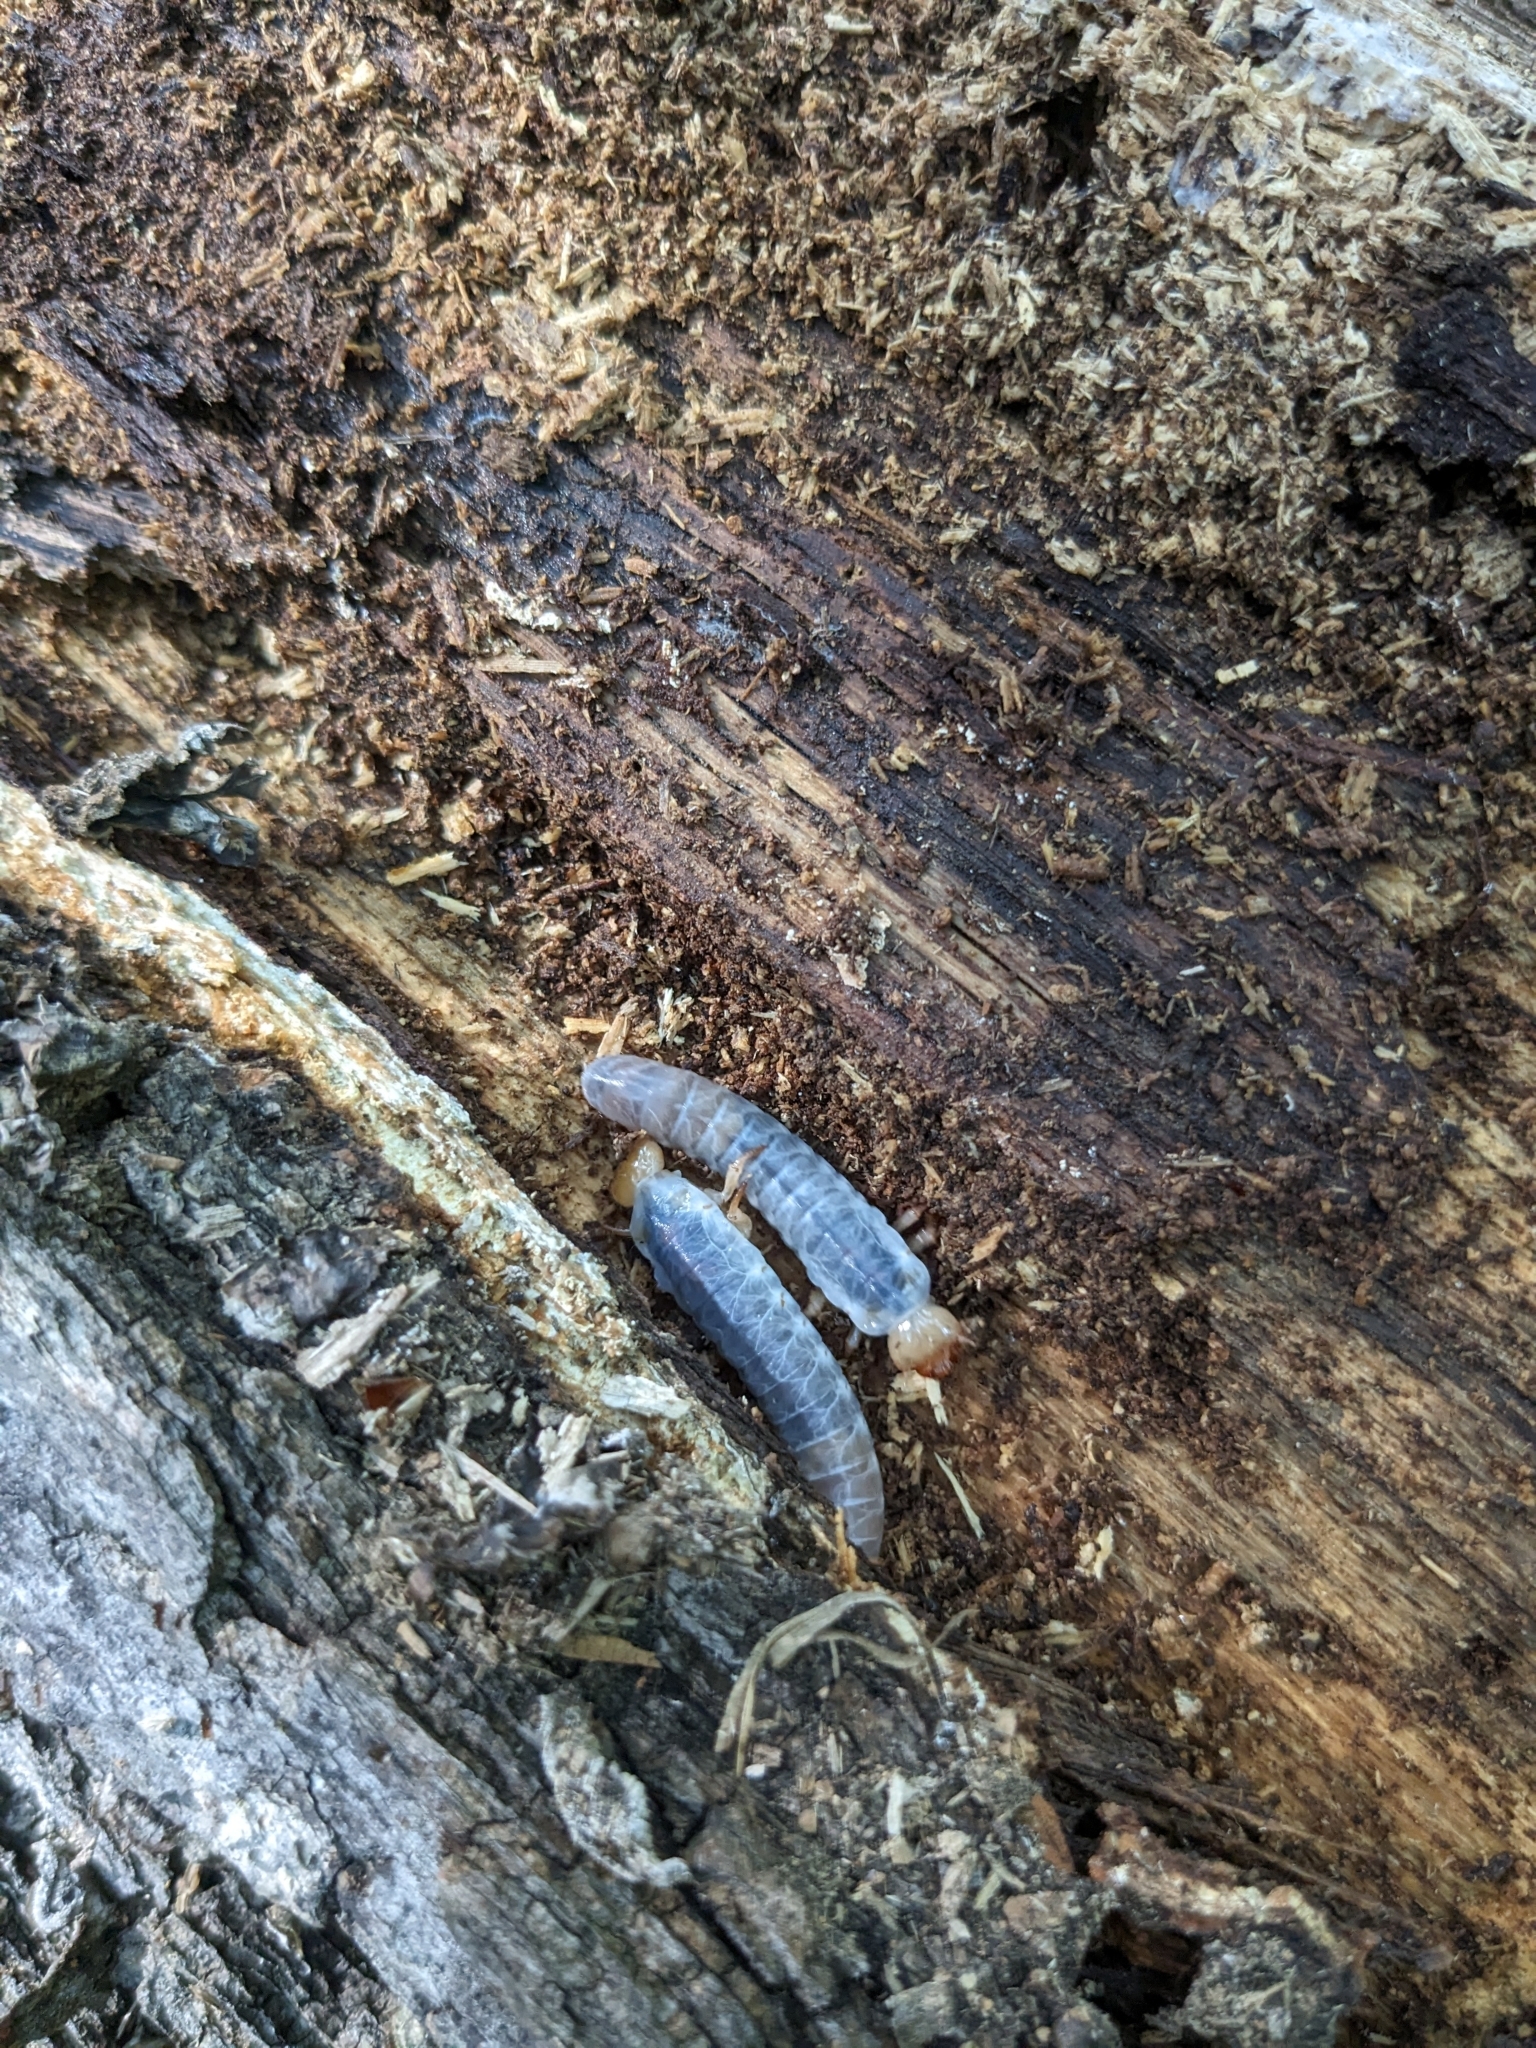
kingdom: Animalia
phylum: Arthropoda
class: Insecta
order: Coleoptera
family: Passalidae
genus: Odontotaenius
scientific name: Odontotaenius disjunctus
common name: Patent leather beetle
